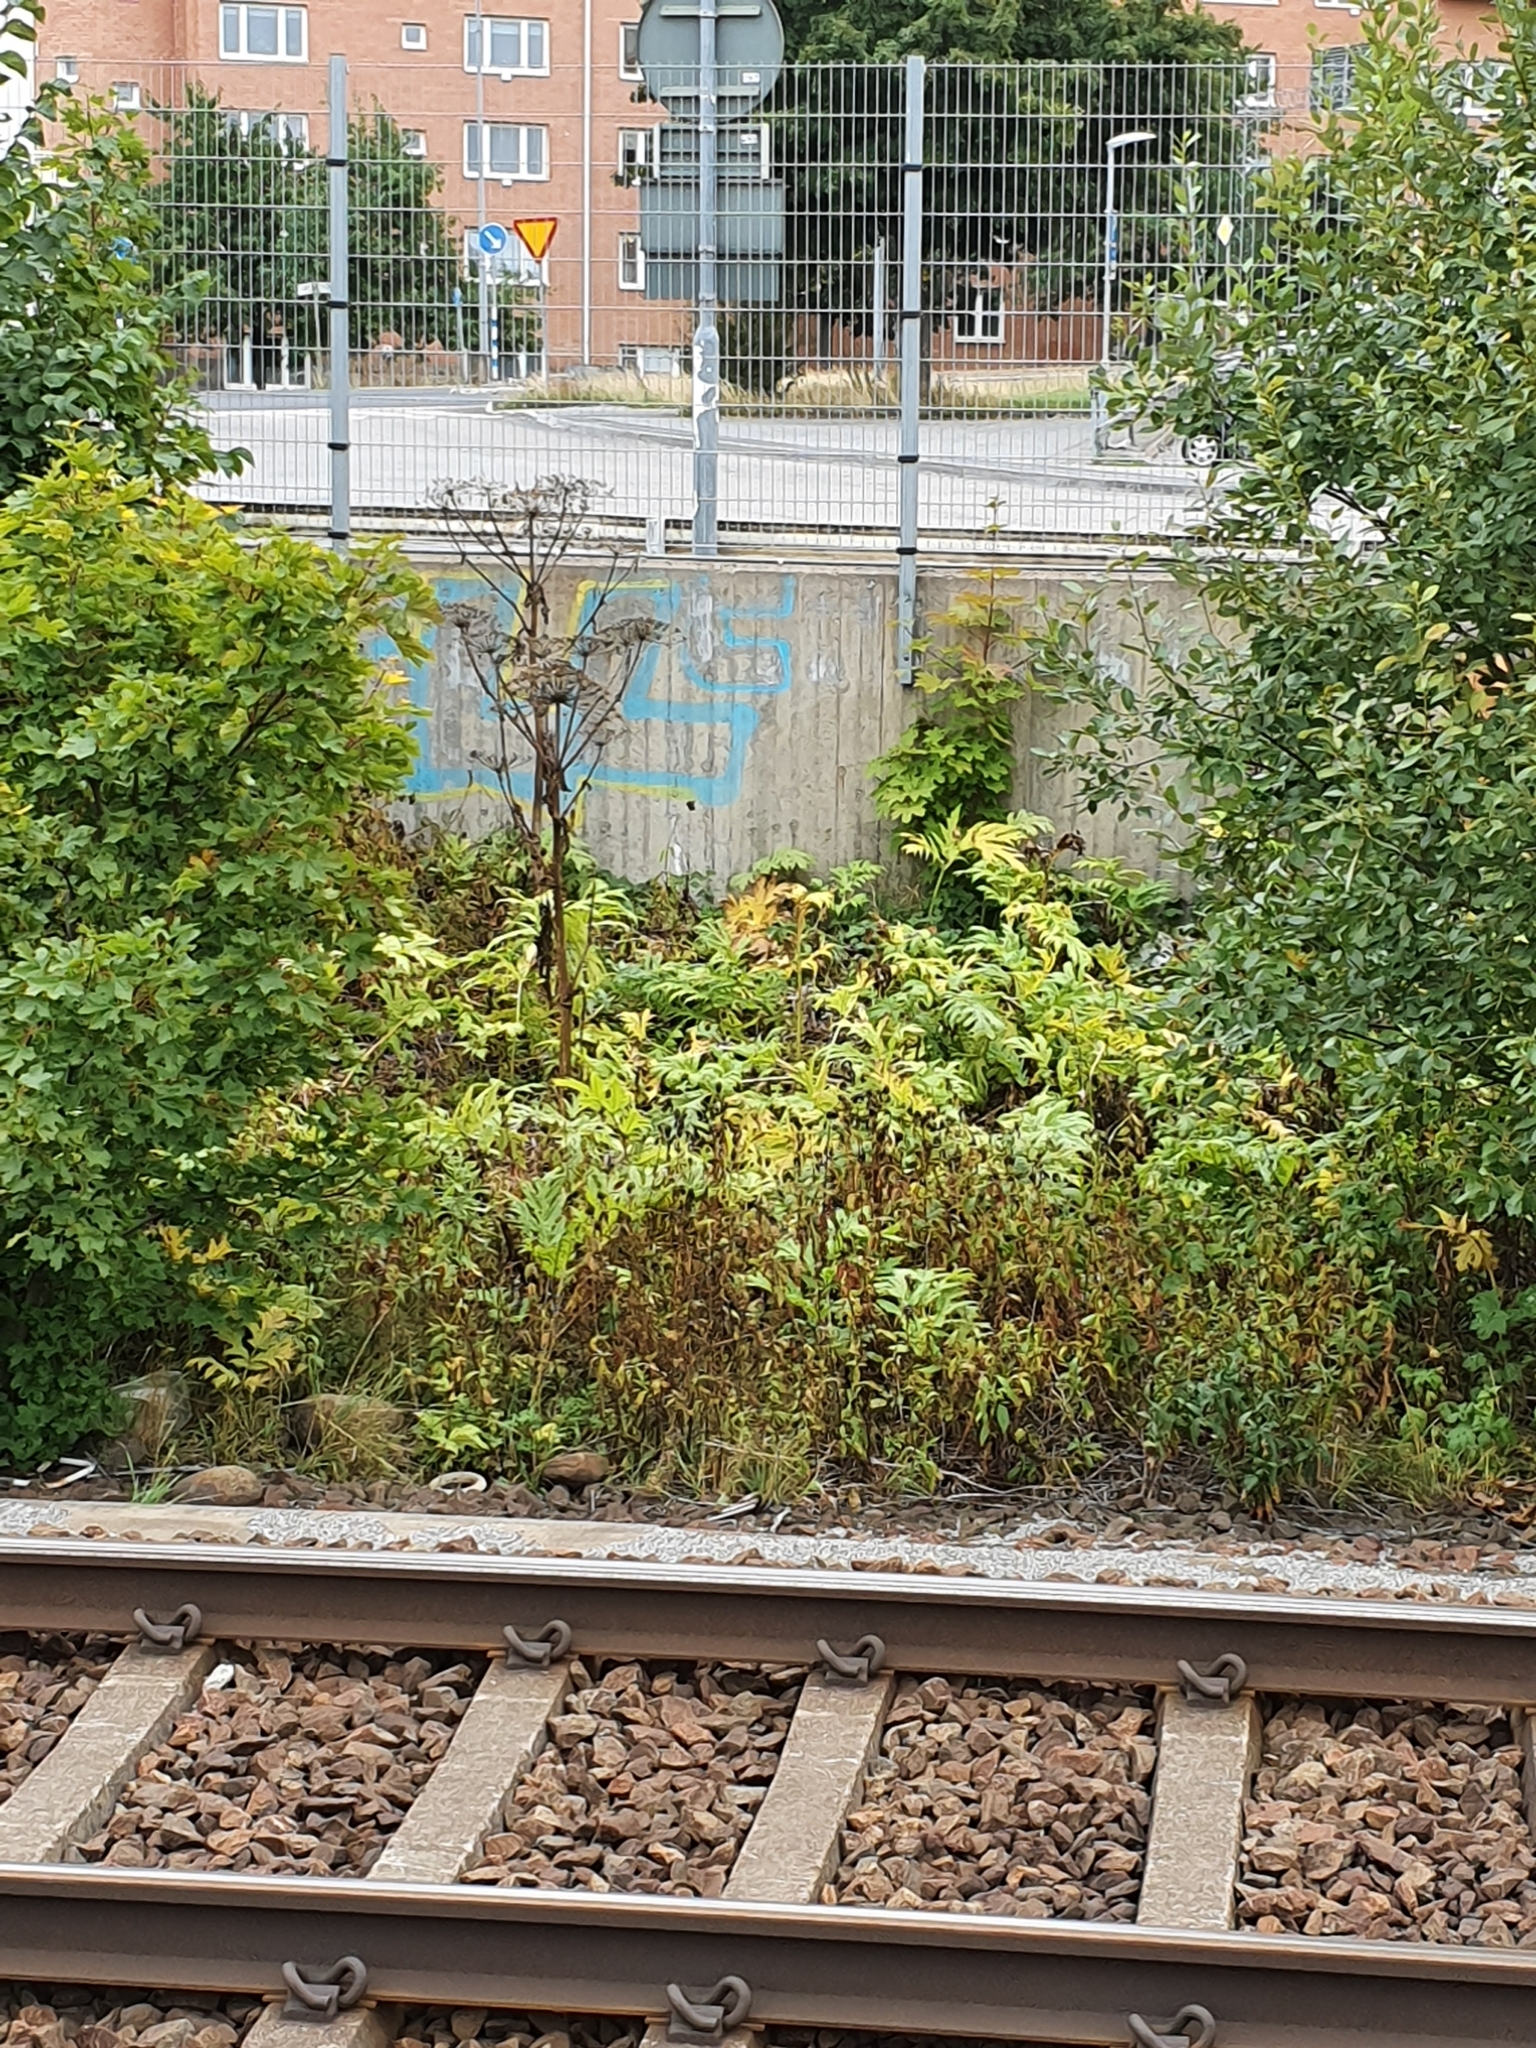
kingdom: Plantae
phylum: Tracheophyta
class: Magnoliopsida
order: Apiales
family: Apiaceae
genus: Heracleum
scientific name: Heracleum mantegazzianum
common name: Giant hogweed
